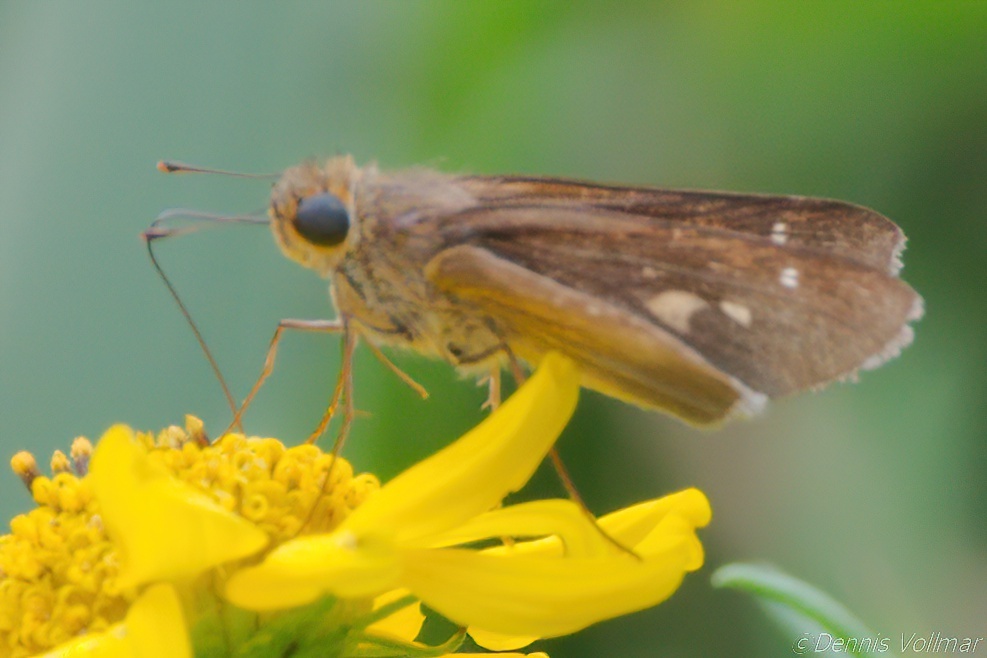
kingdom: Animalia
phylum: Arthropoda
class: Insecta
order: Lepidoptera
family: Hesperiidae
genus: Panoquina
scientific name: Panoquina ocola
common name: Ocola skipper
